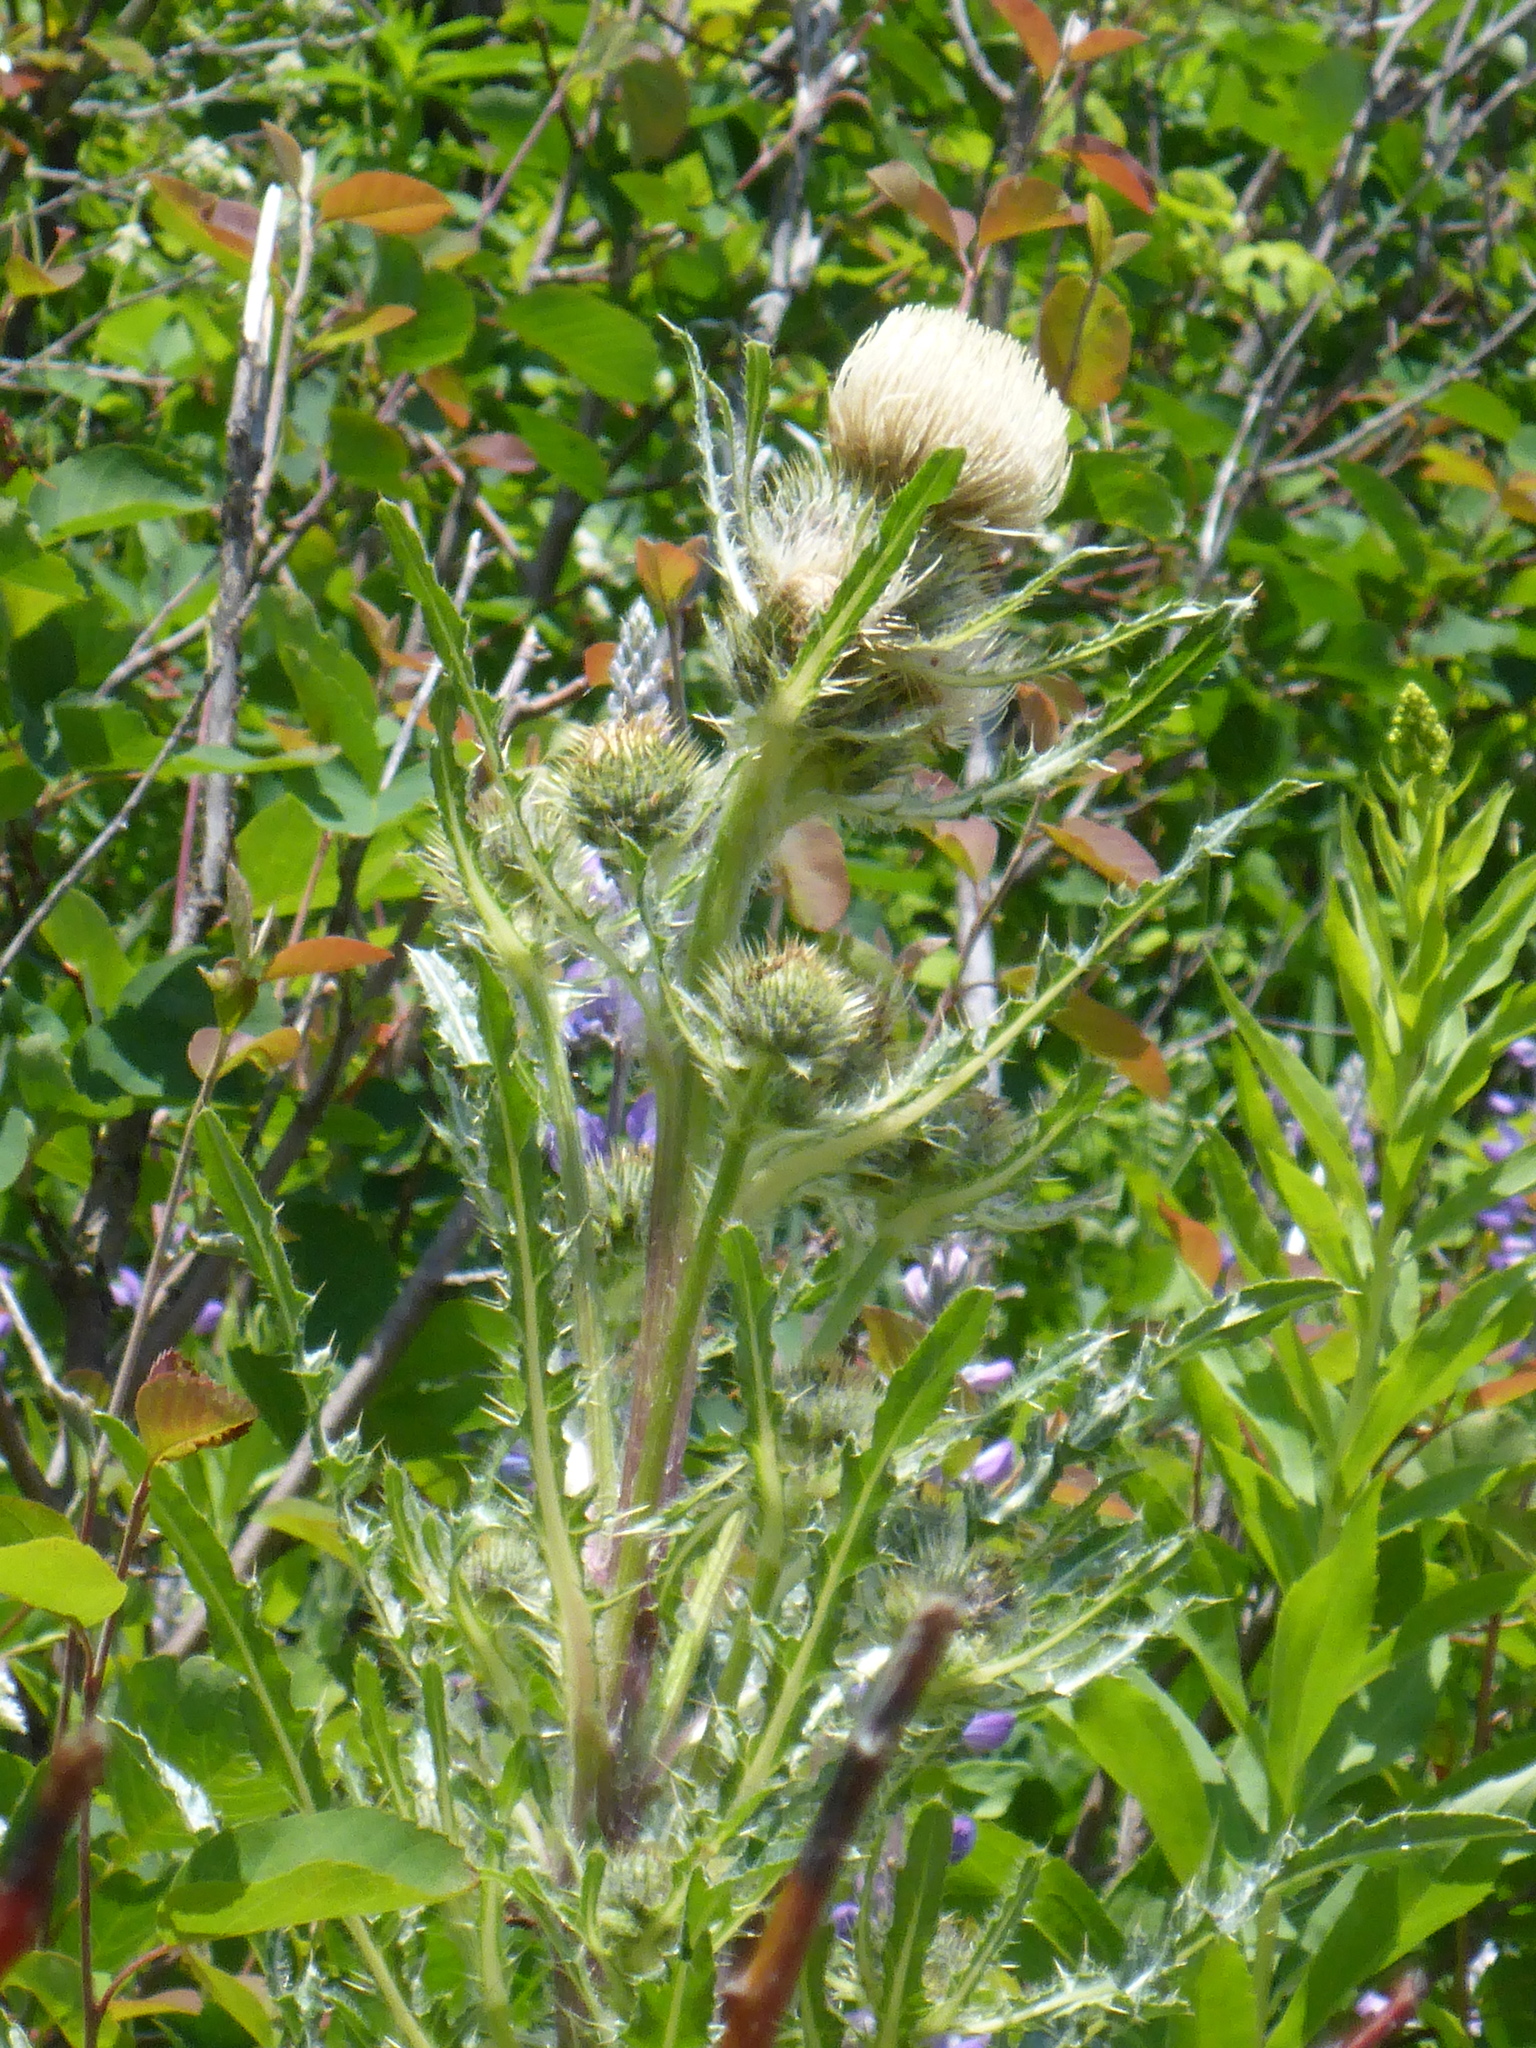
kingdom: Plantae
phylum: Tracheophyta
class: Magnoliopsida
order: Asterales
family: Asteraceae
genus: Cirsium
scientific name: Cirsium scariosum
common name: Meadow thistle
